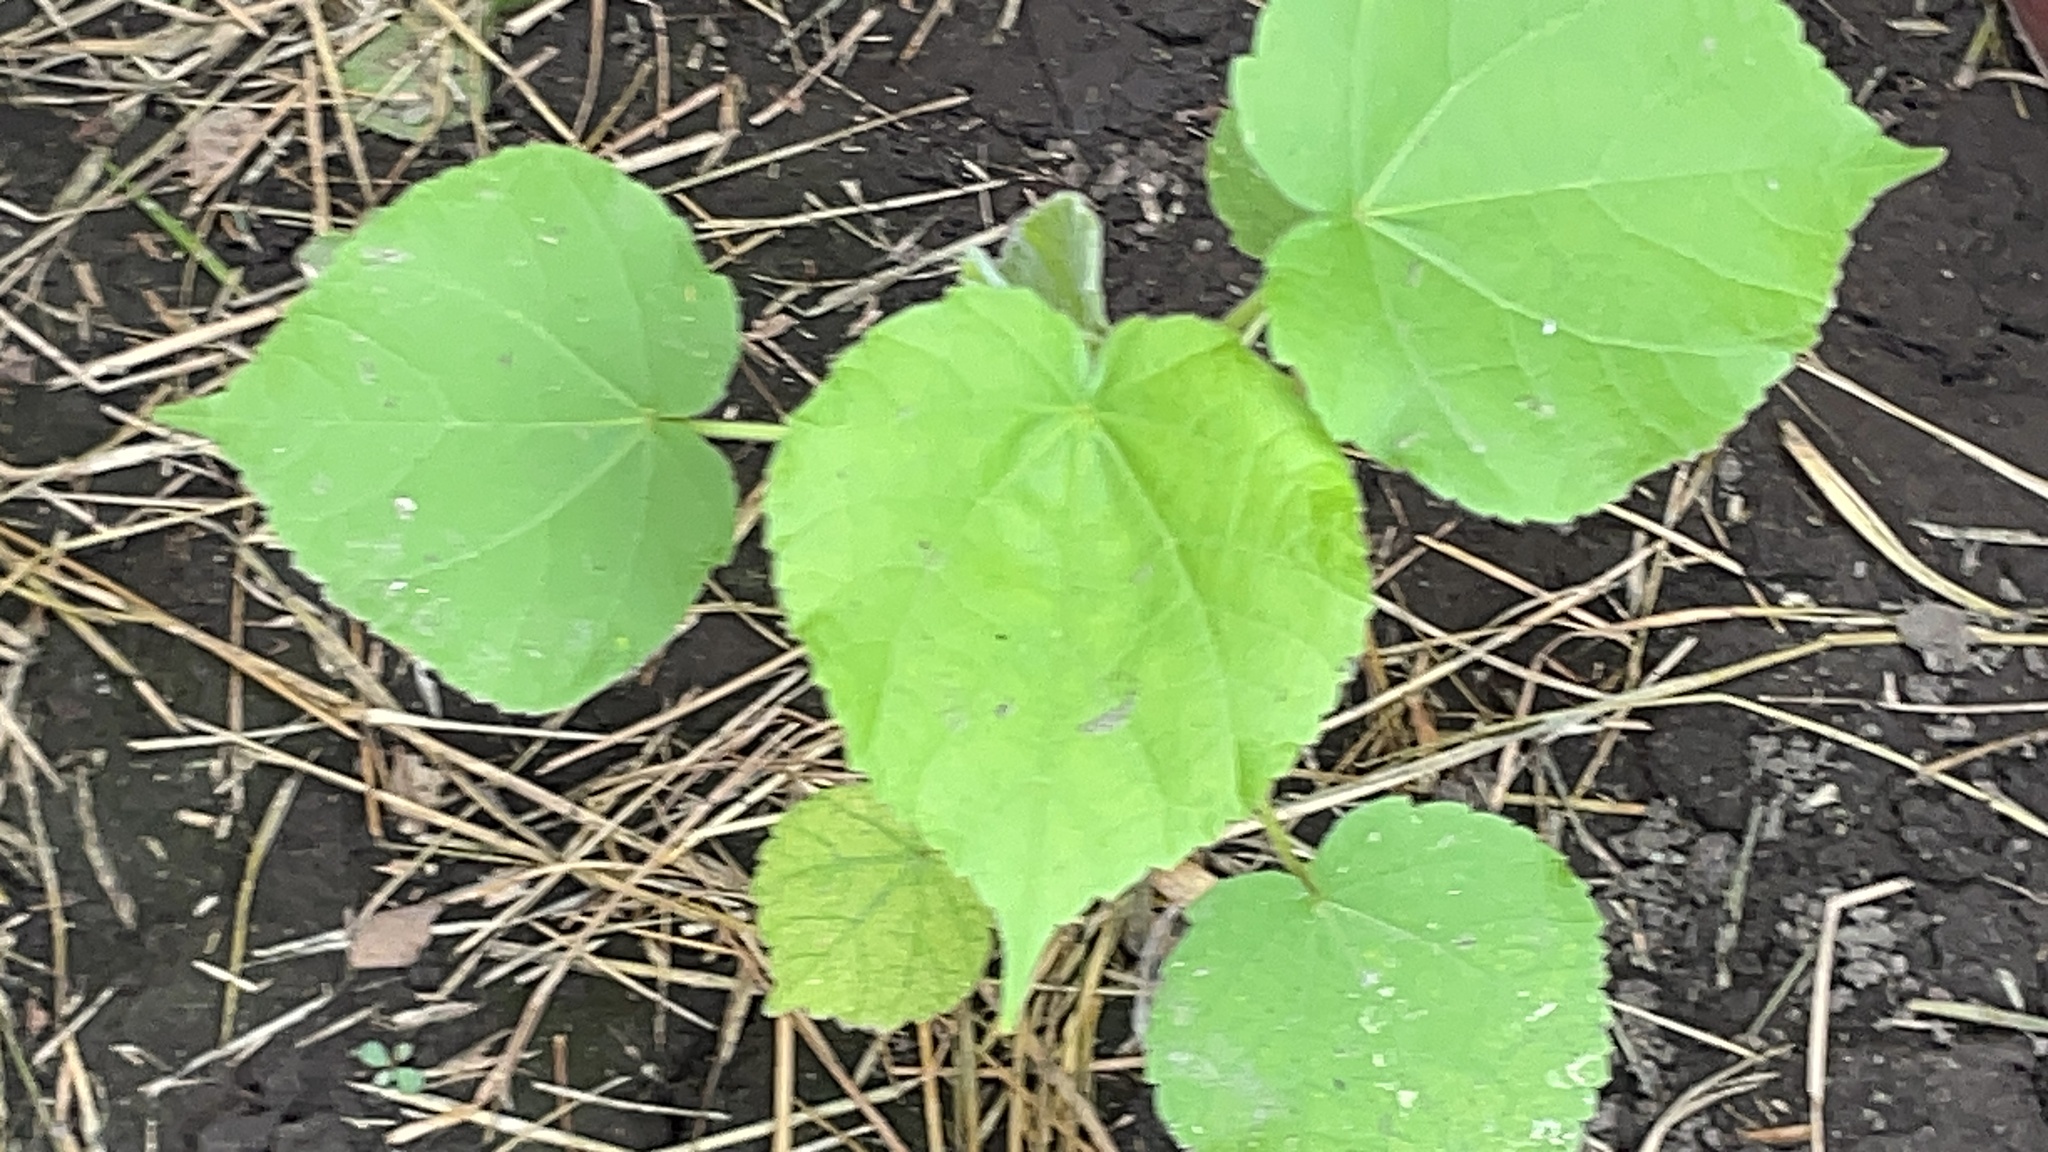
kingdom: Plantae
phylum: Tracheophyta
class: Magnoliopsida
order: Malvales
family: Malvaceae
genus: Abutilon
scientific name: Abutilon theophrasti
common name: Velvetleaf
